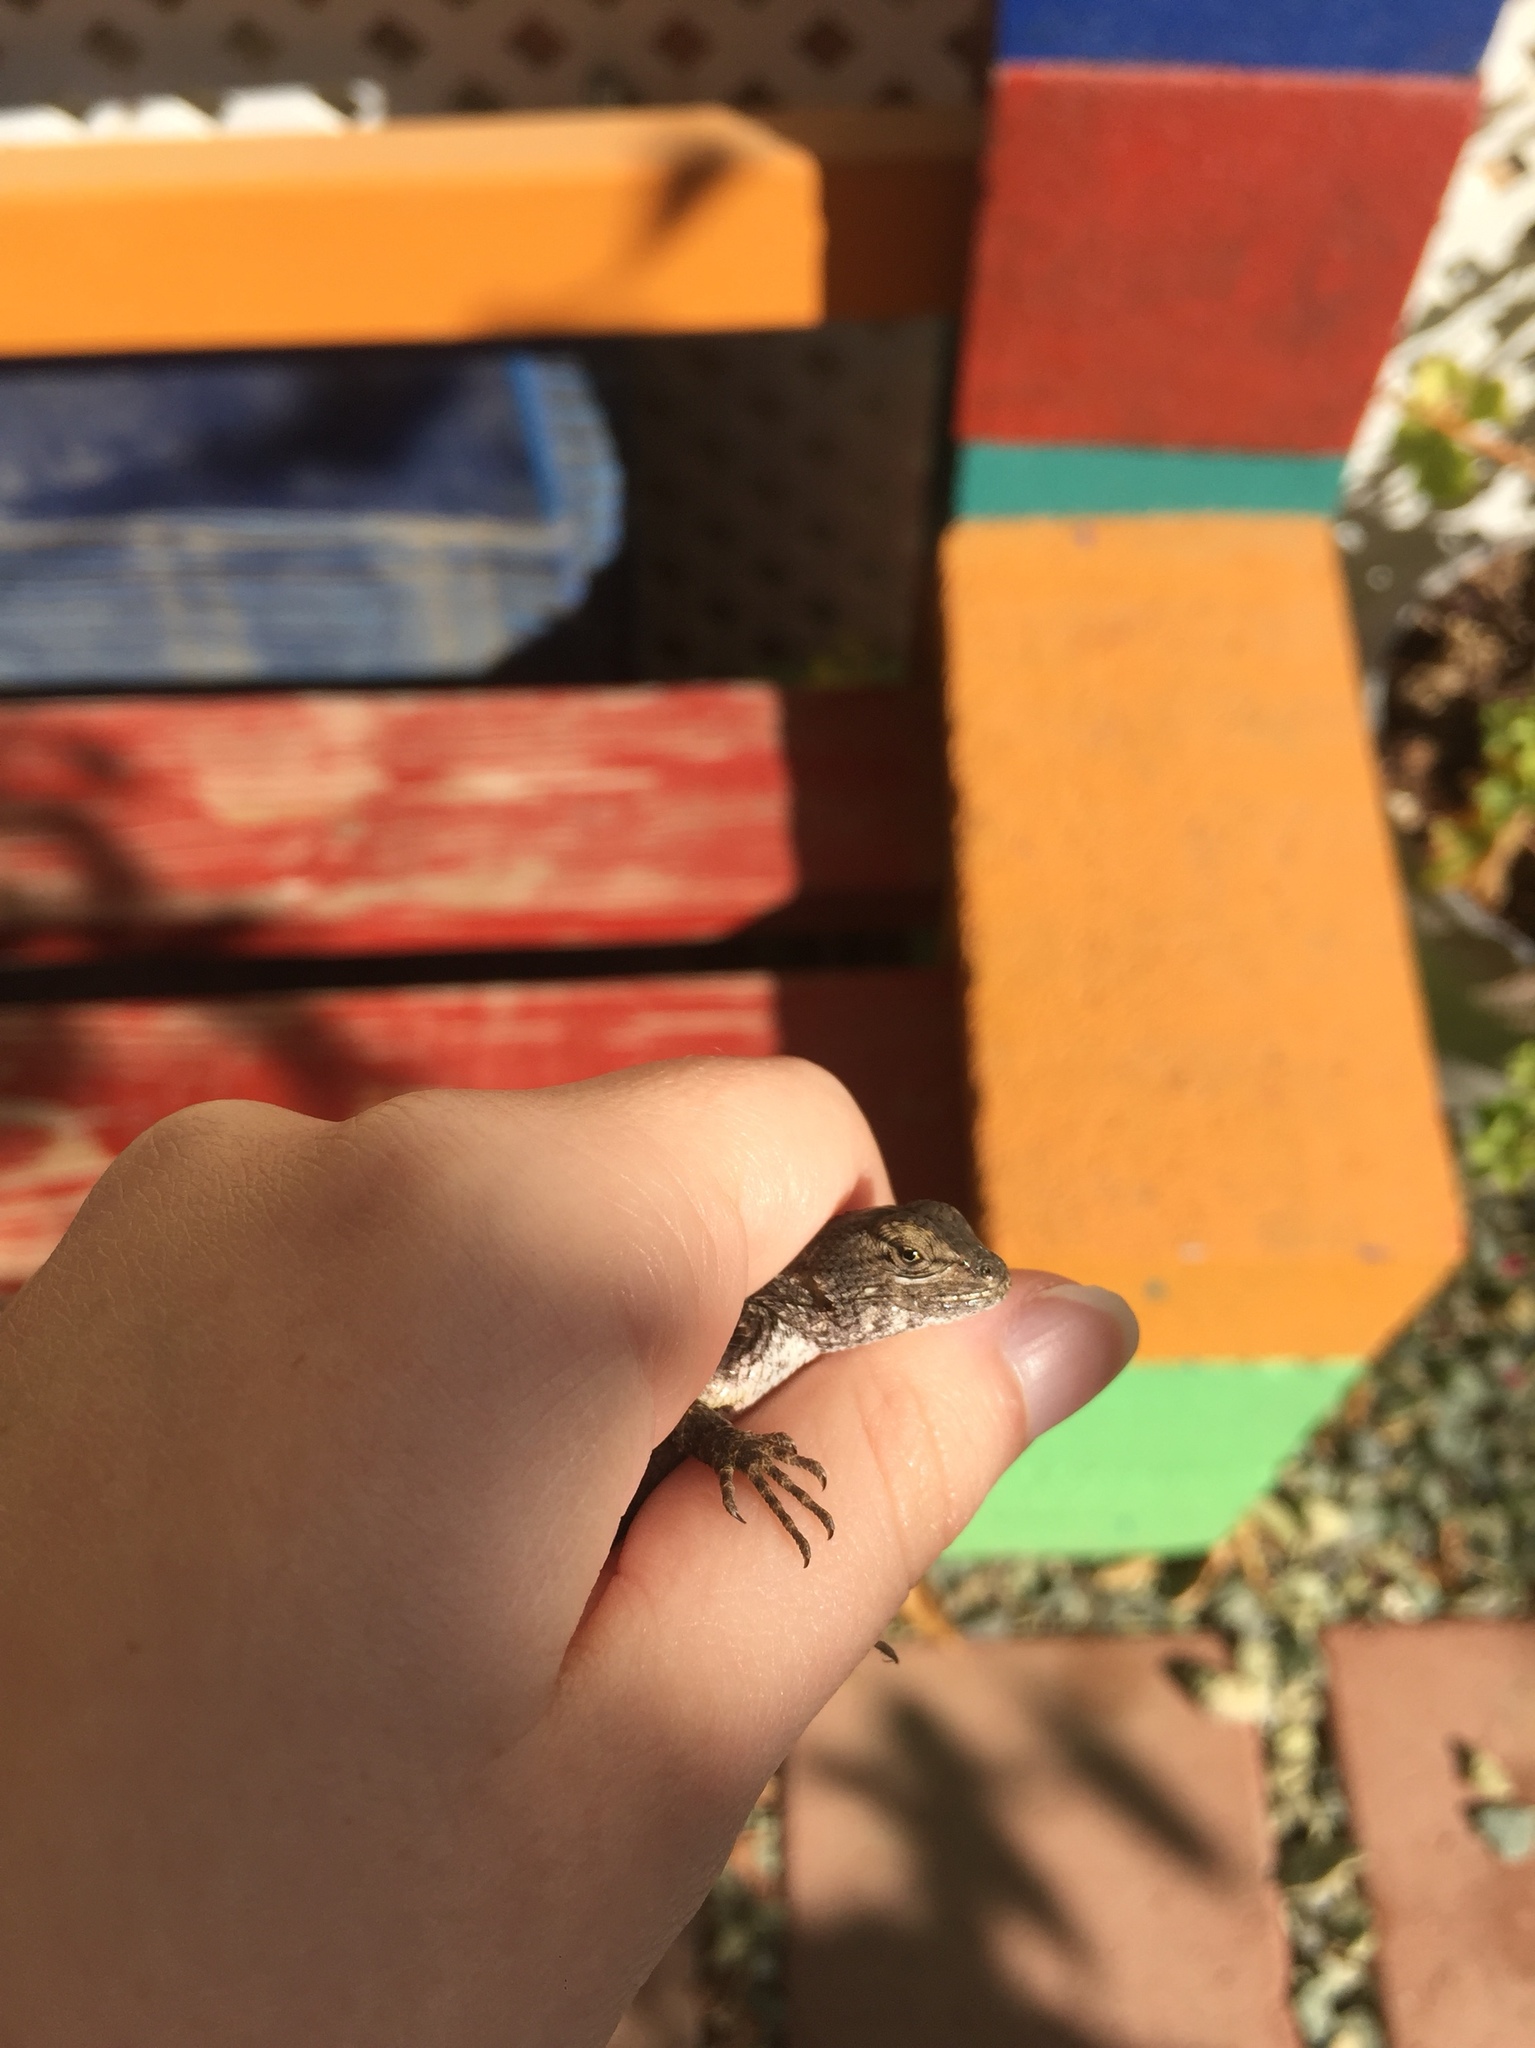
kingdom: Animalia
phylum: Chordata
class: Squamata
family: Phrynosomatidae
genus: Sceloporus
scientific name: Sceloporus occidentalis
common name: Western fence lizard
